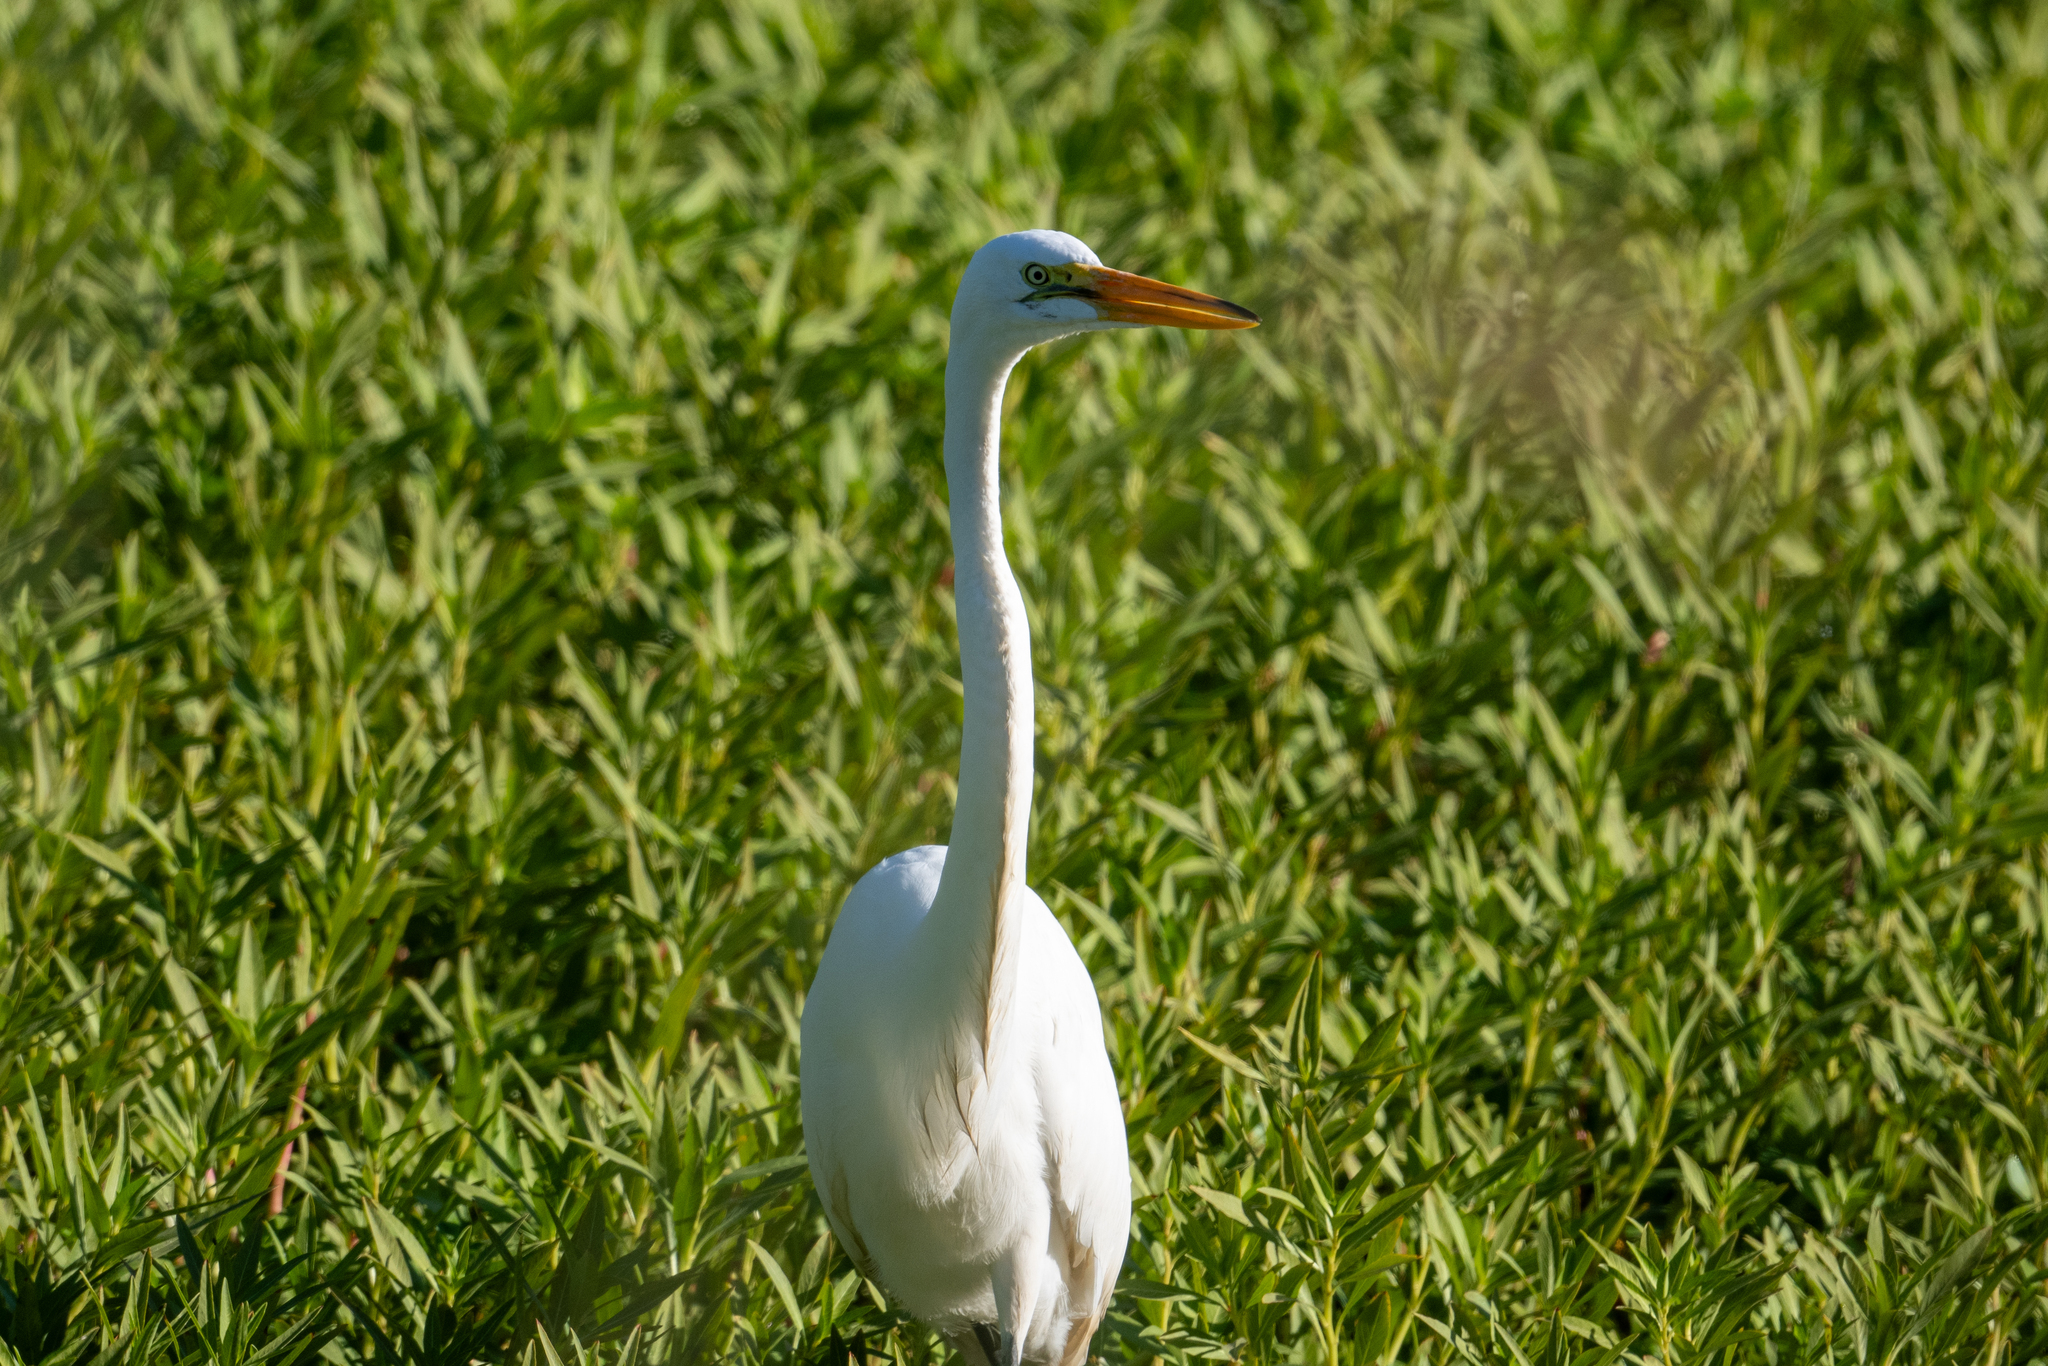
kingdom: Animalia
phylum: Chordata
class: Aves
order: Pelecaniformes
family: Ardeidae
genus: Ardea
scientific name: Ardea alba
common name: Great egret
